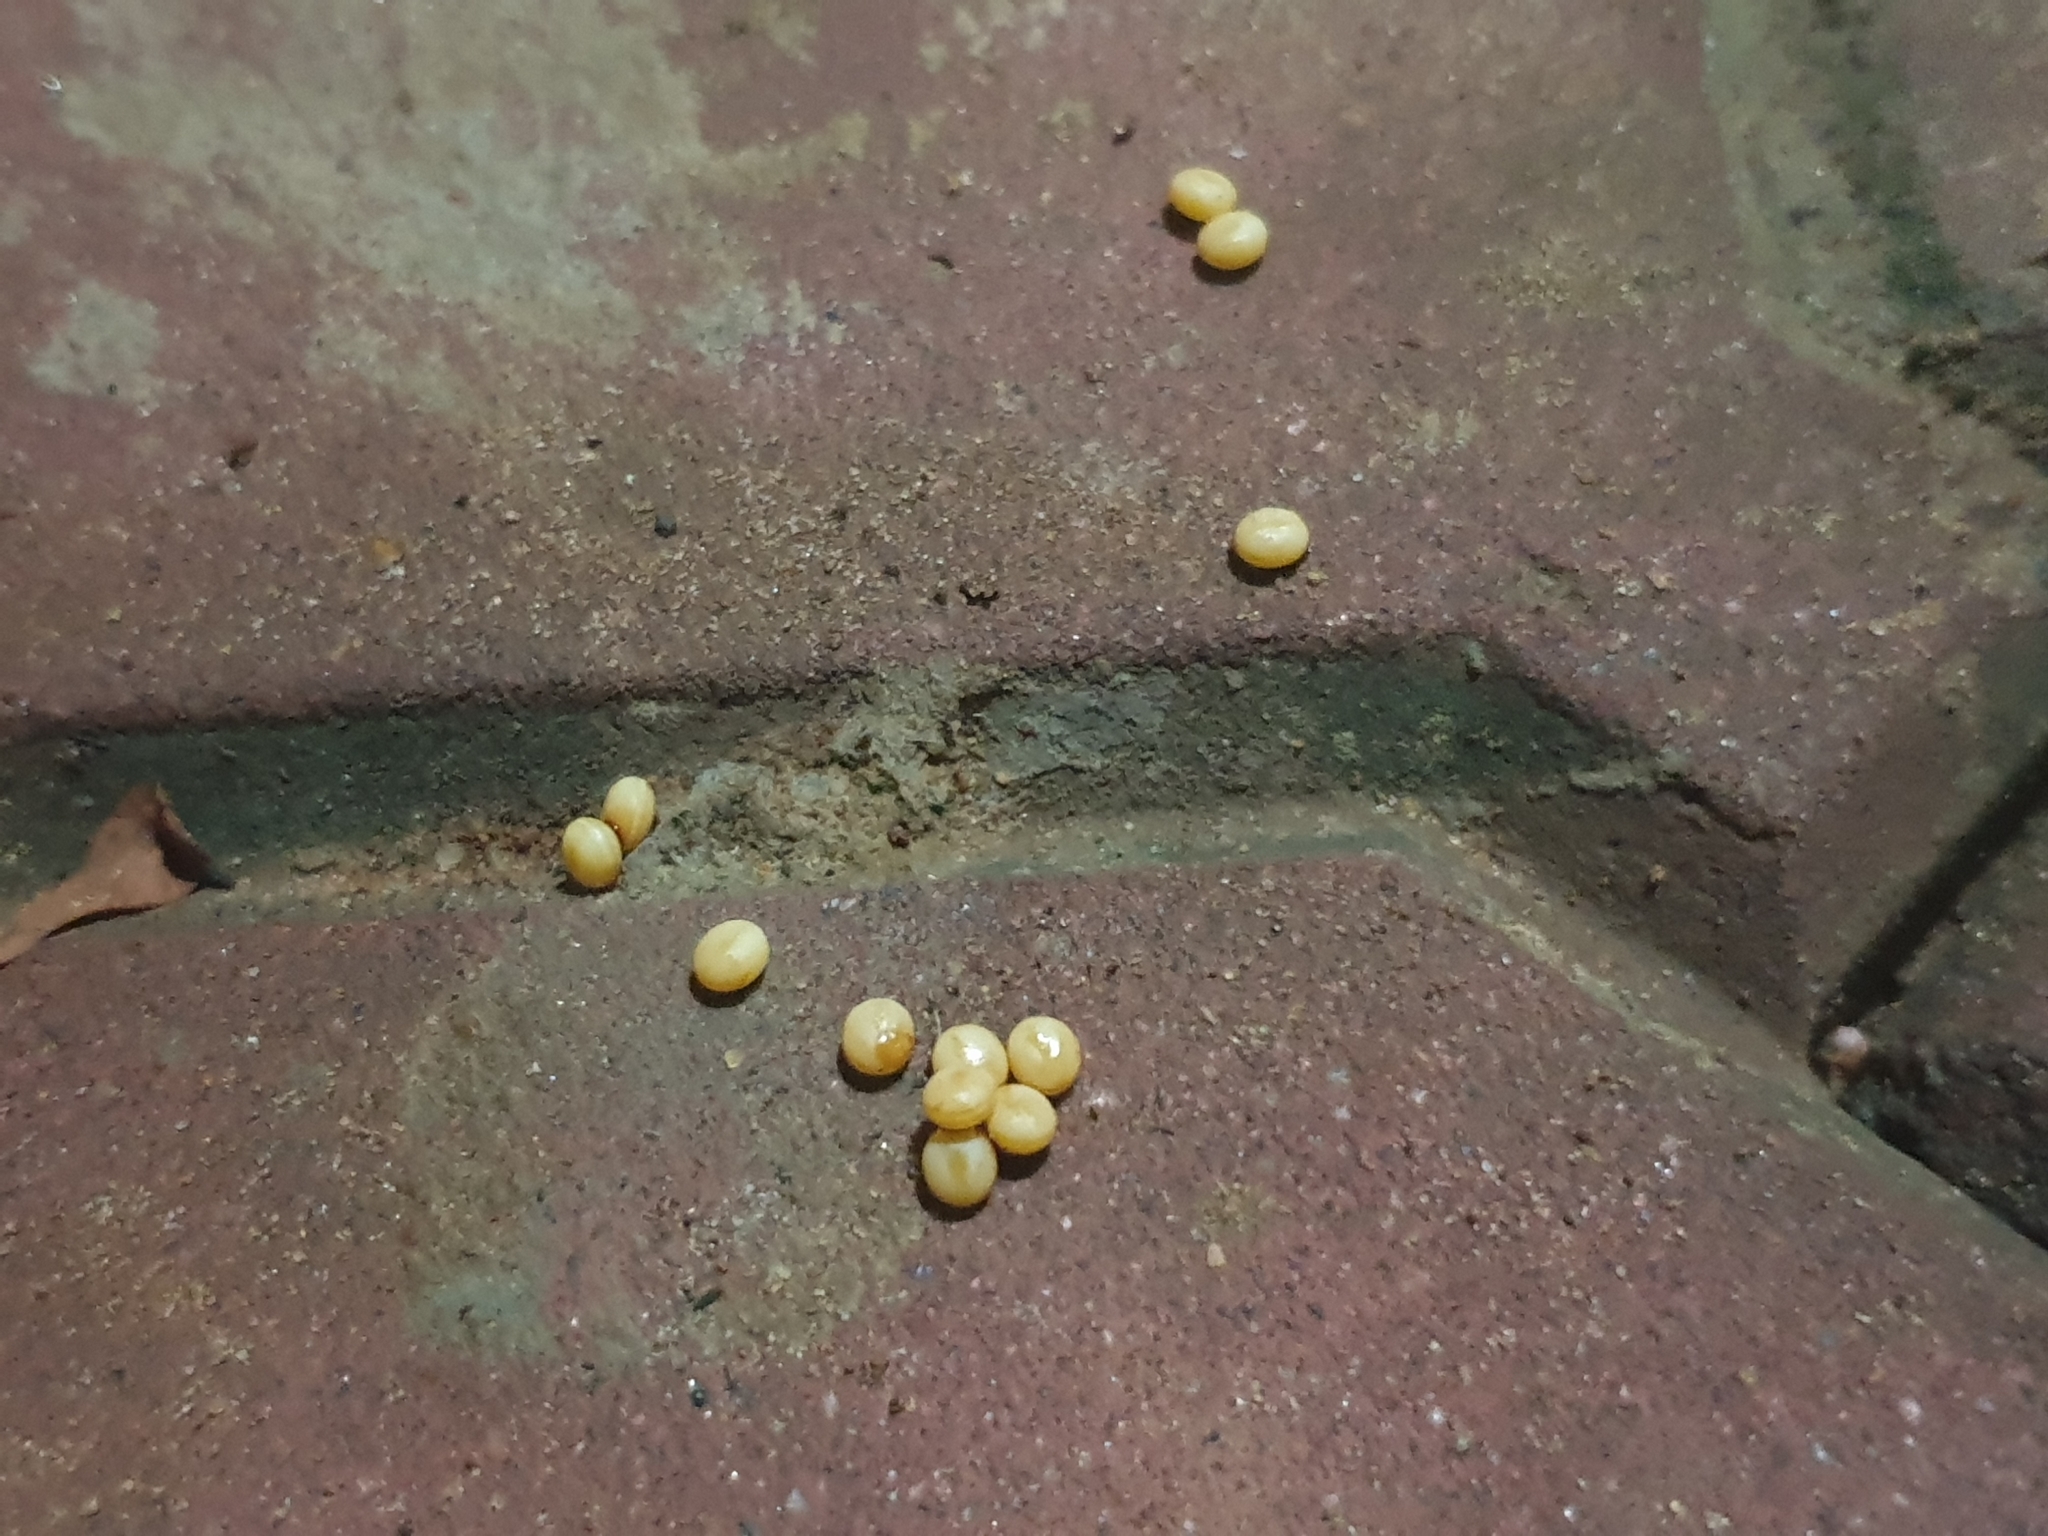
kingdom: Animalia
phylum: Arthropoda
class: Insecta
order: Lepidoptera
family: Saturniidae
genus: Antheraea
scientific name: Antheraea cingalesa
